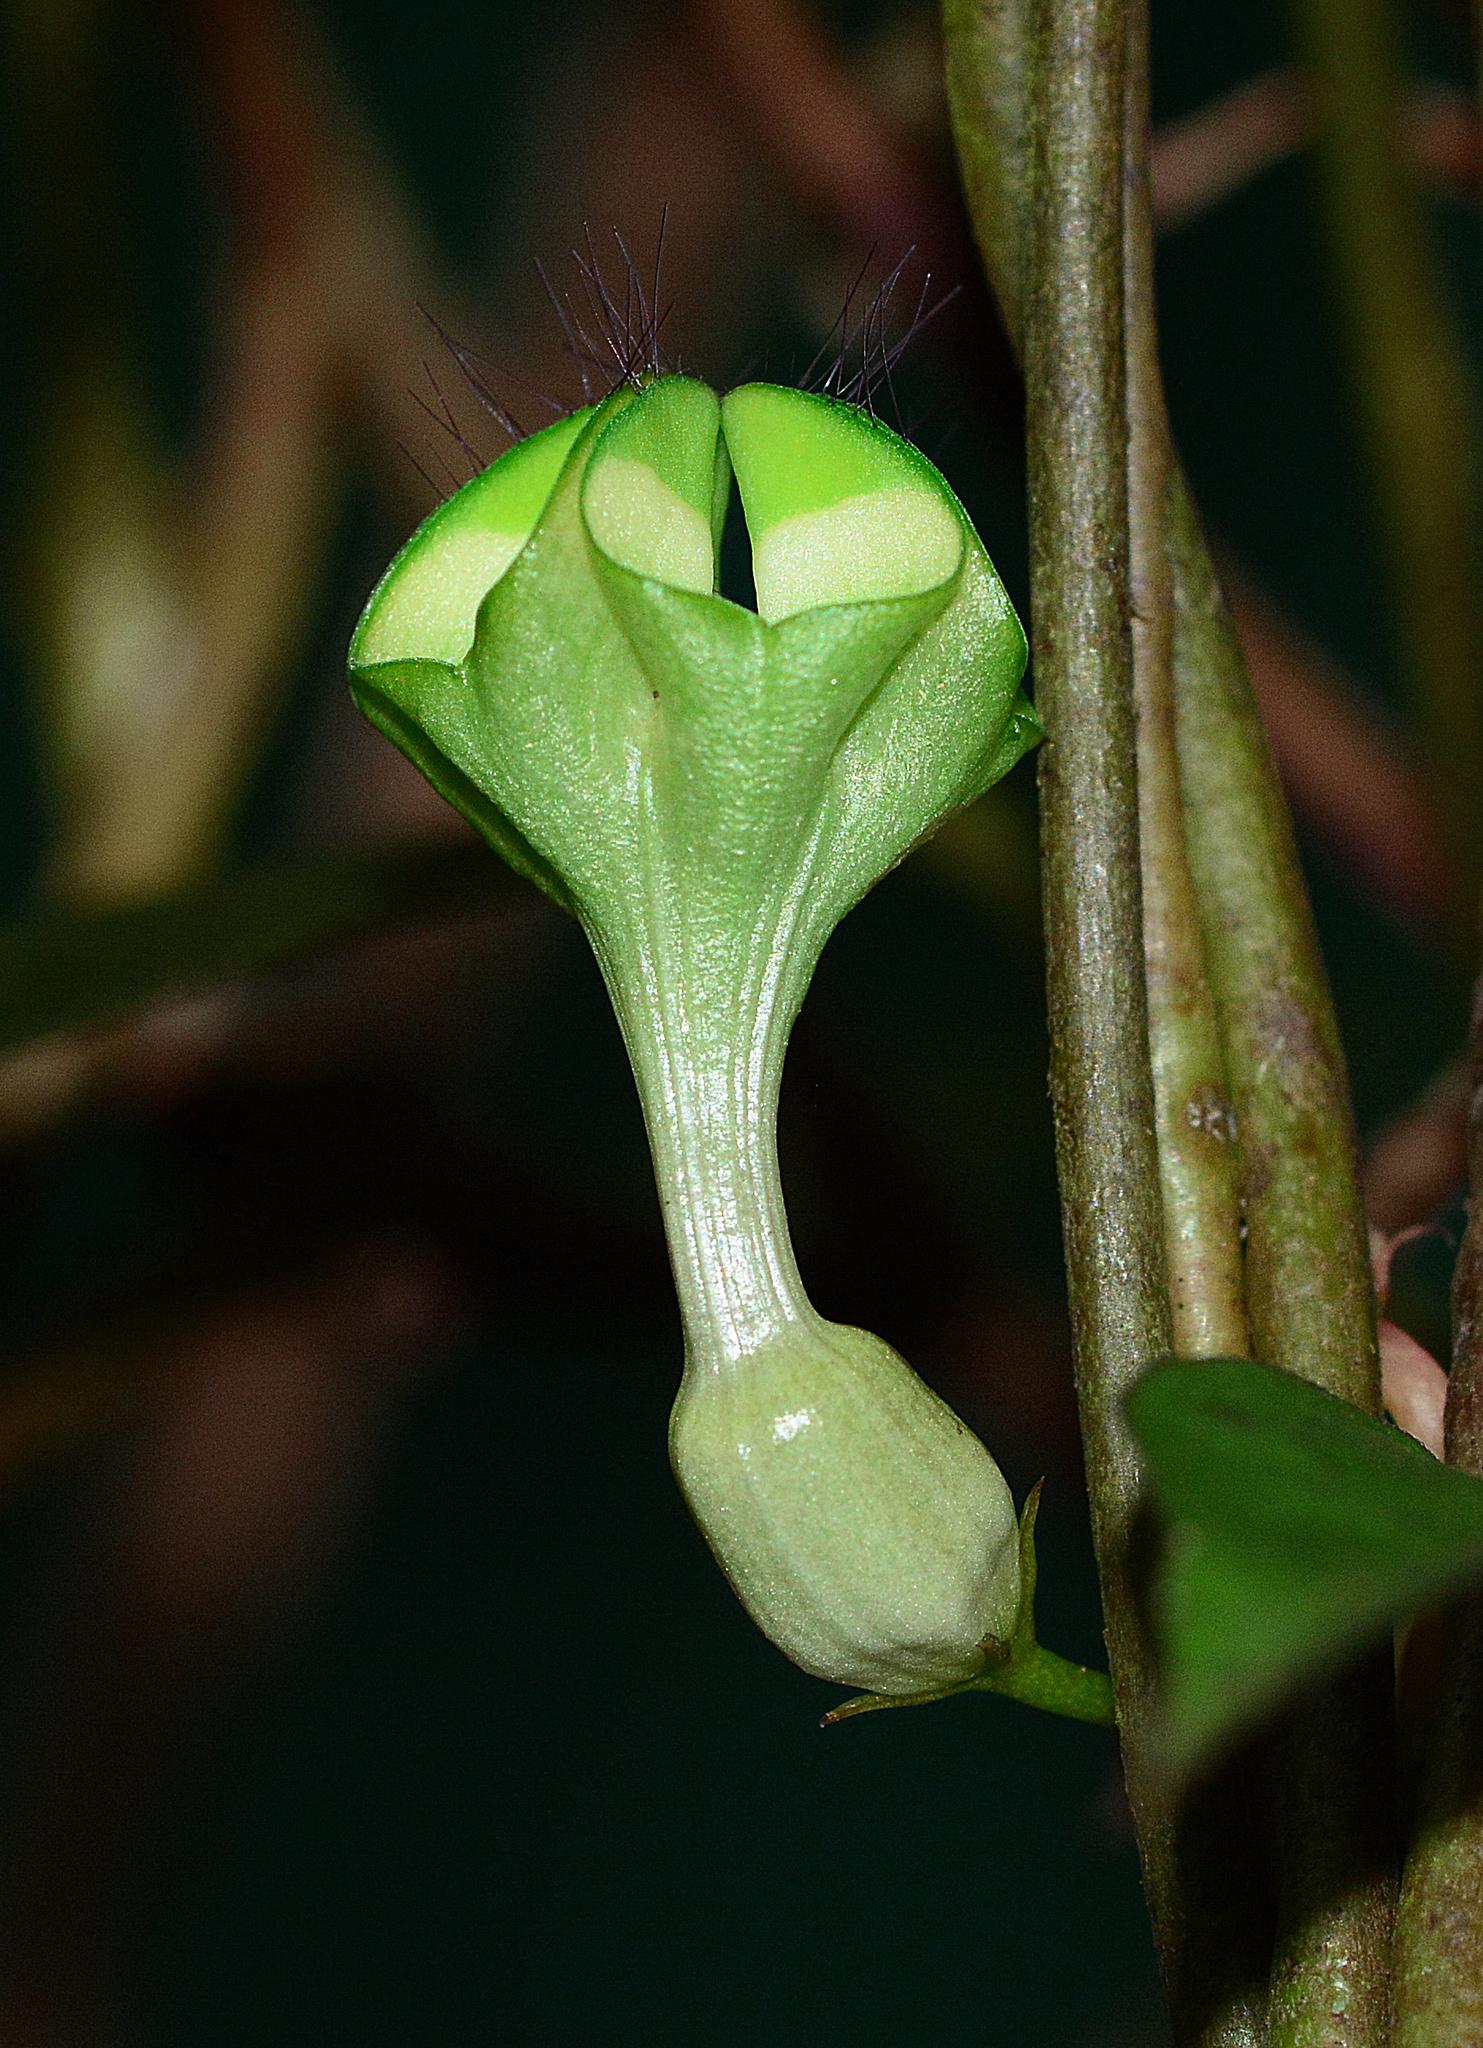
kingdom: Plantae
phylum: Tracheophyta
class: Magnoliopsida
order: Gentianales
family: Apocynaceae
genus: Ceropegia
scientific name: Ceropegia elegans
